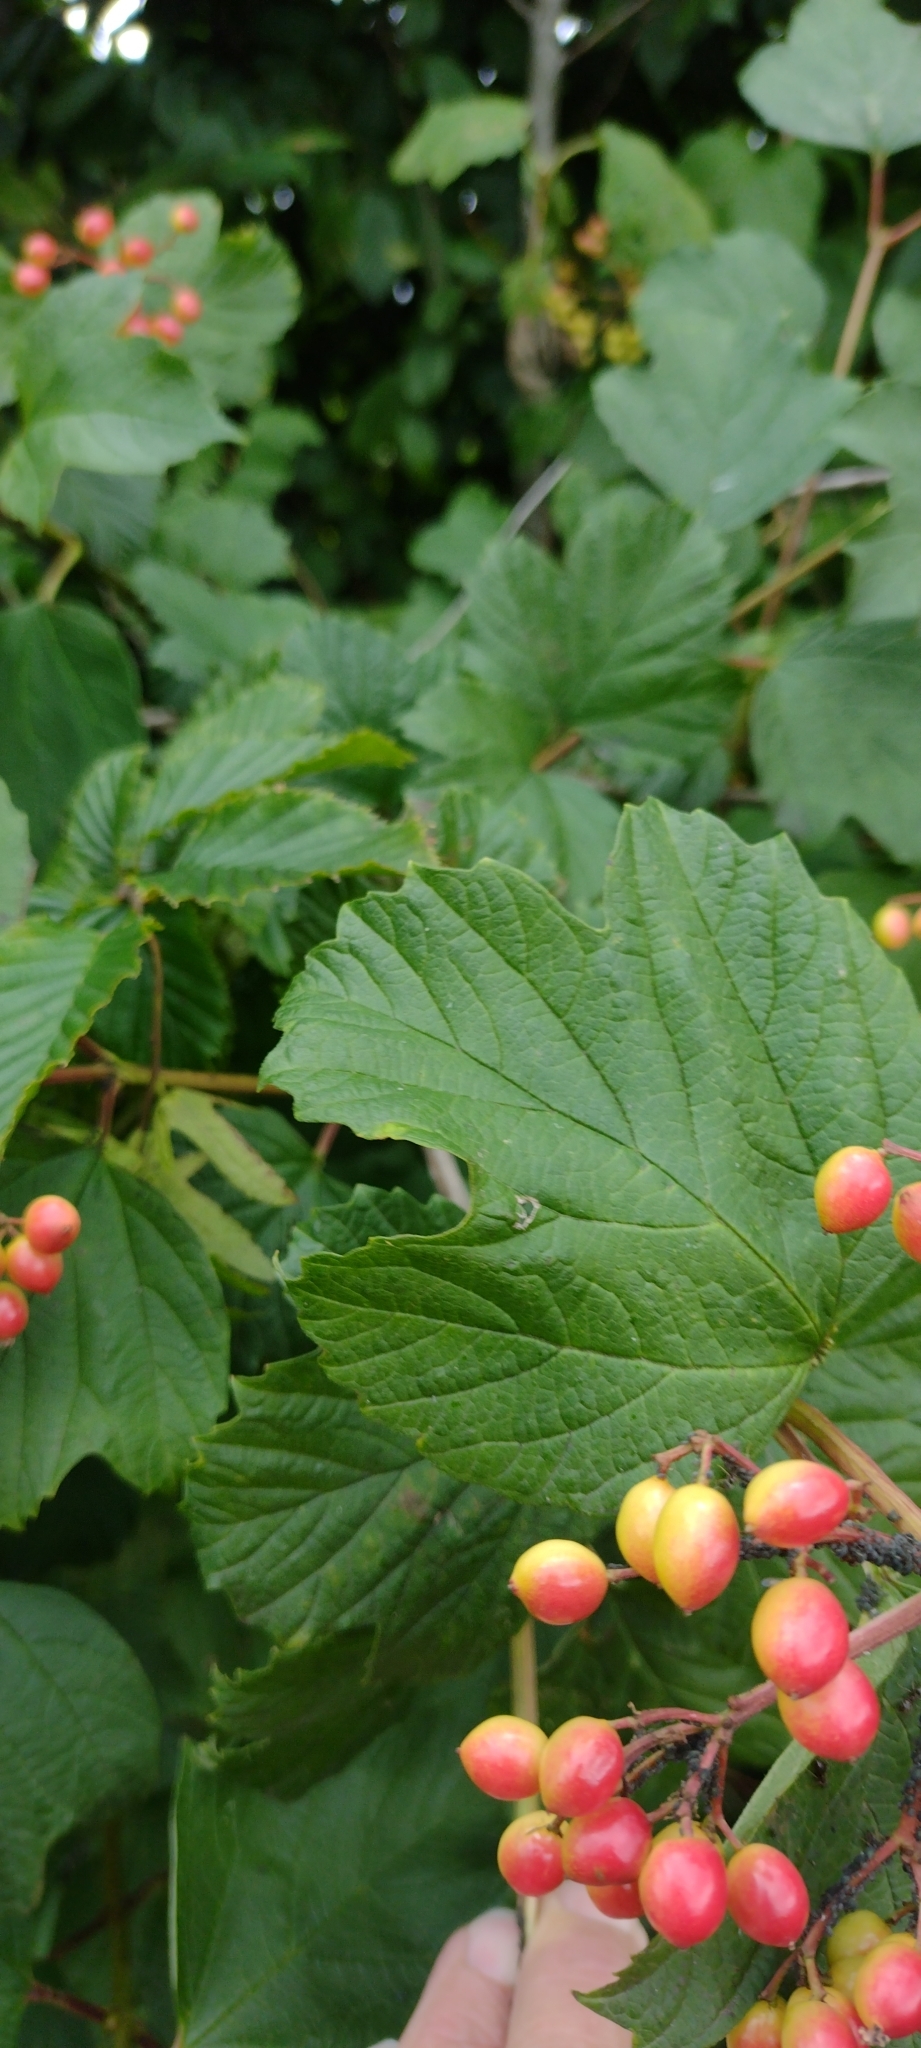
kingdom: Plantae
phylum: Tracheophyta
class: Magnoliopsida
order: Dipsacales
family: Viburnaceae
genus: Viburnum
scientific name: Viburnum opulus
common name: Guelder-rose
